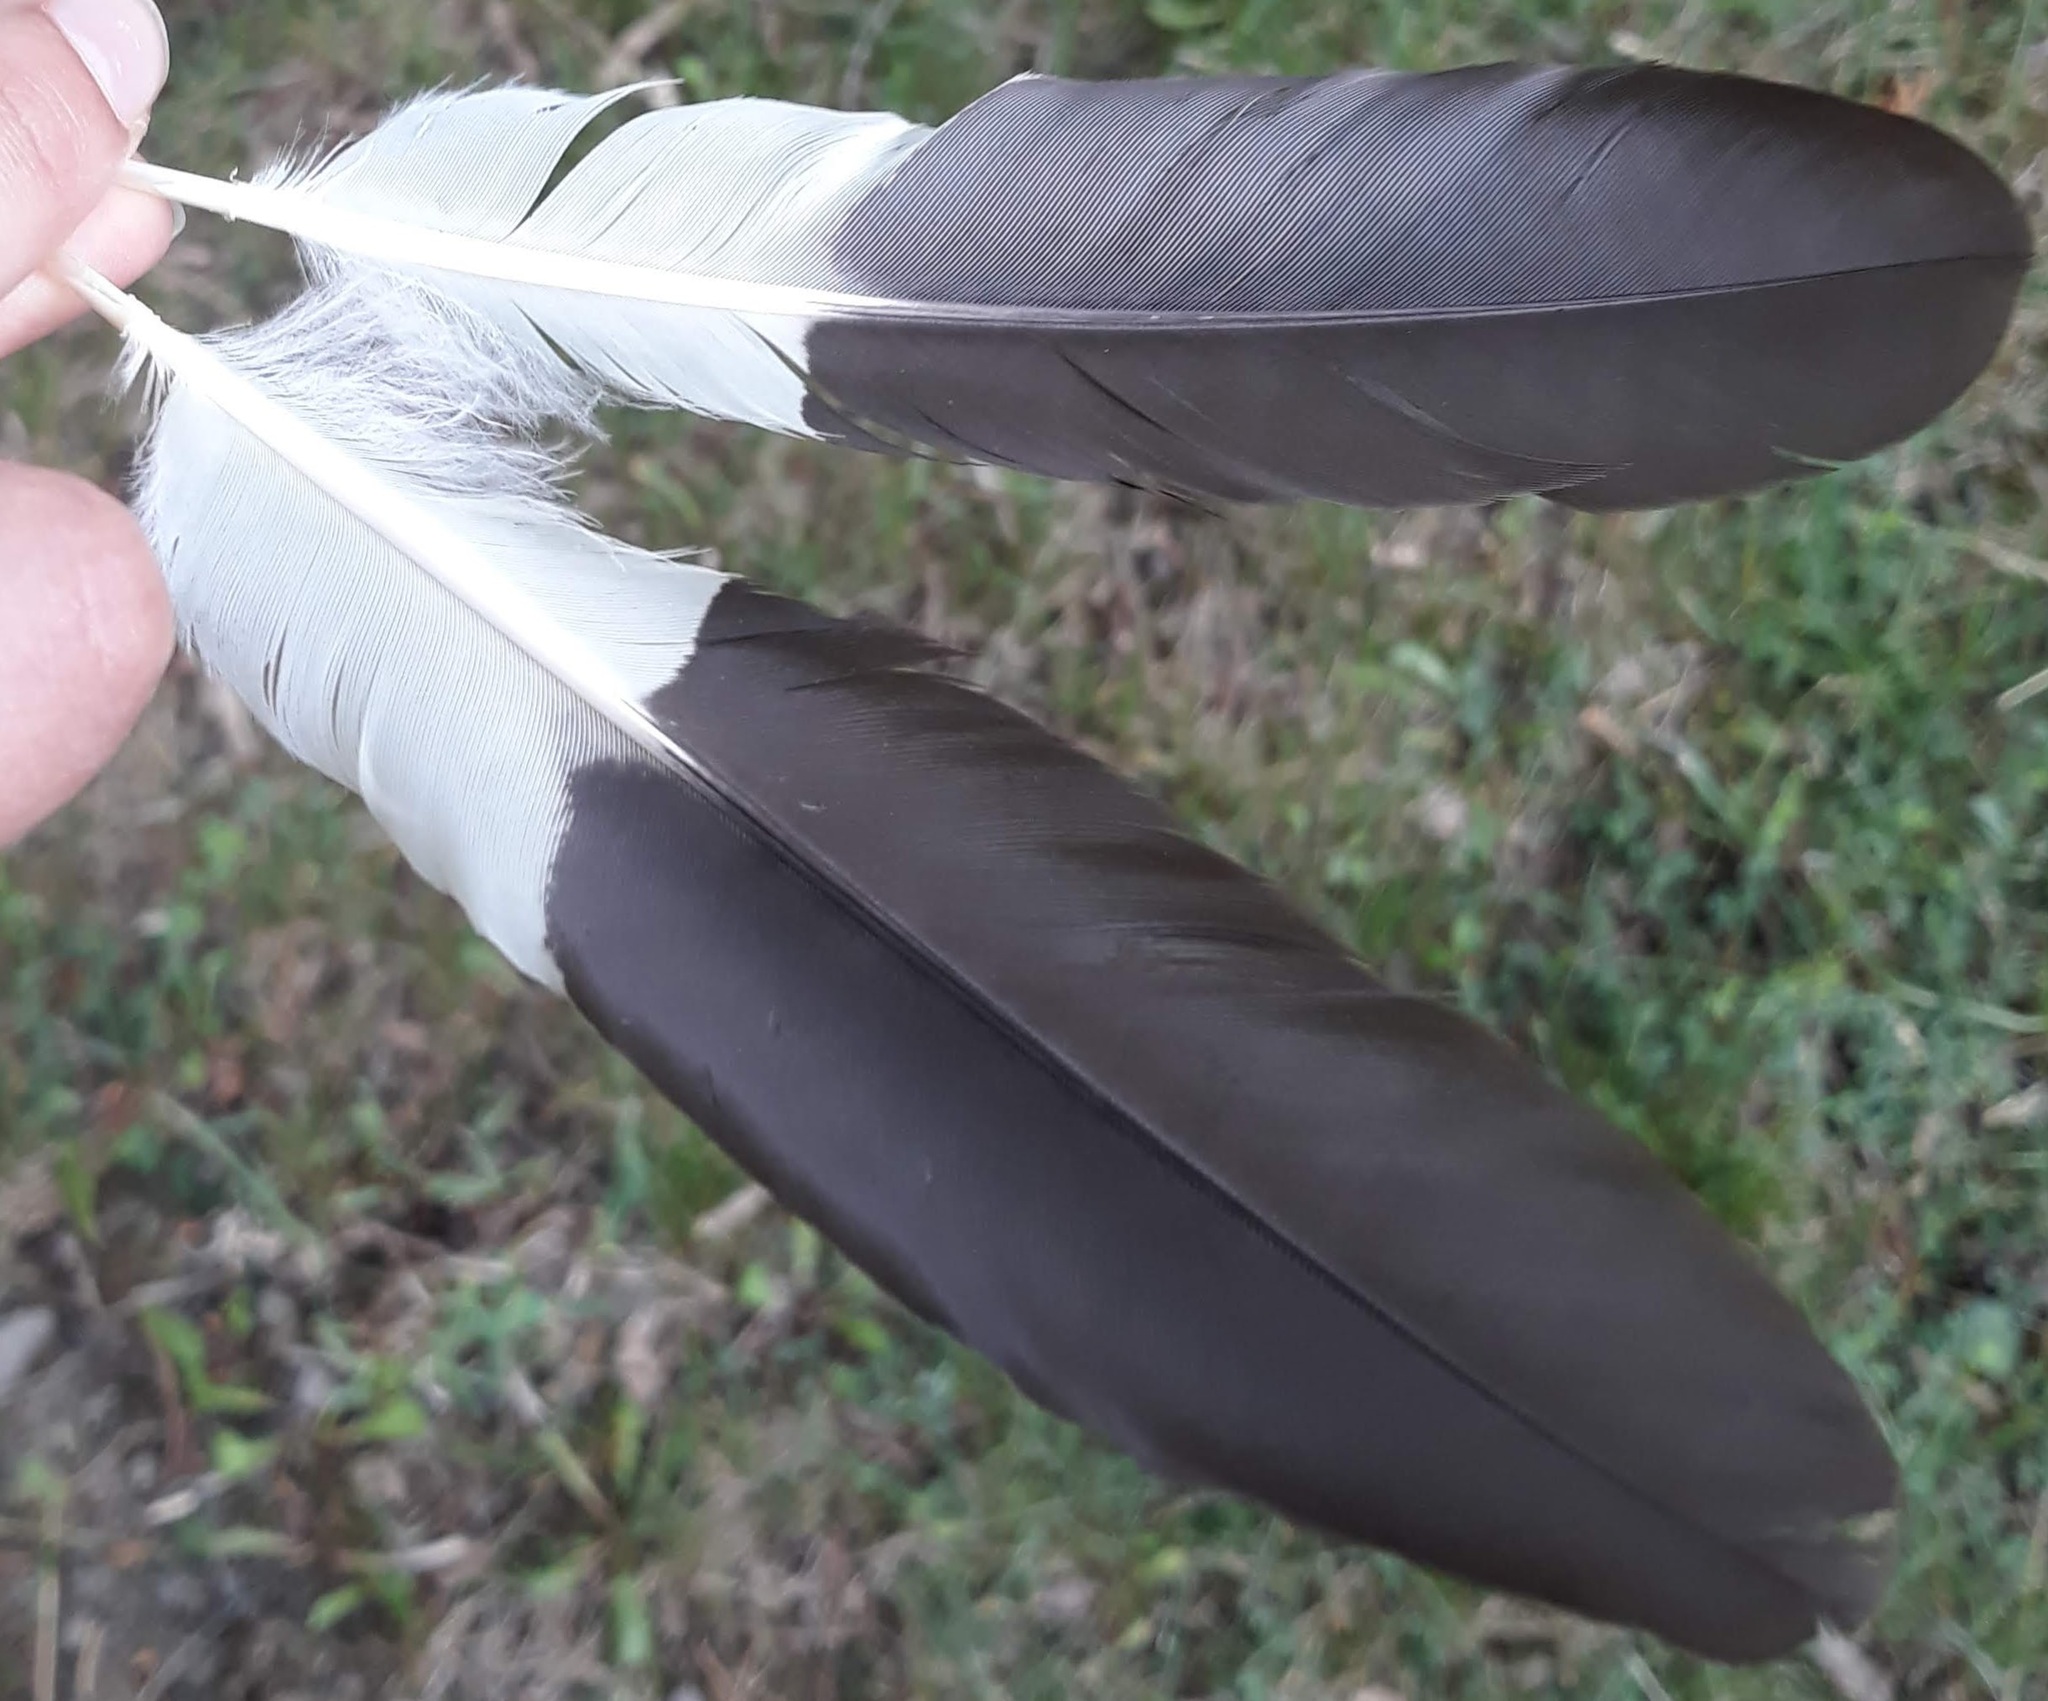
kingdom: Animalia
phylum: Chordata
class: Aves
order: Piciformes
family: Picidae
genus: Dryocopus
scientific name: Dryocopus pileatus
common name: Pileated woodpecker
